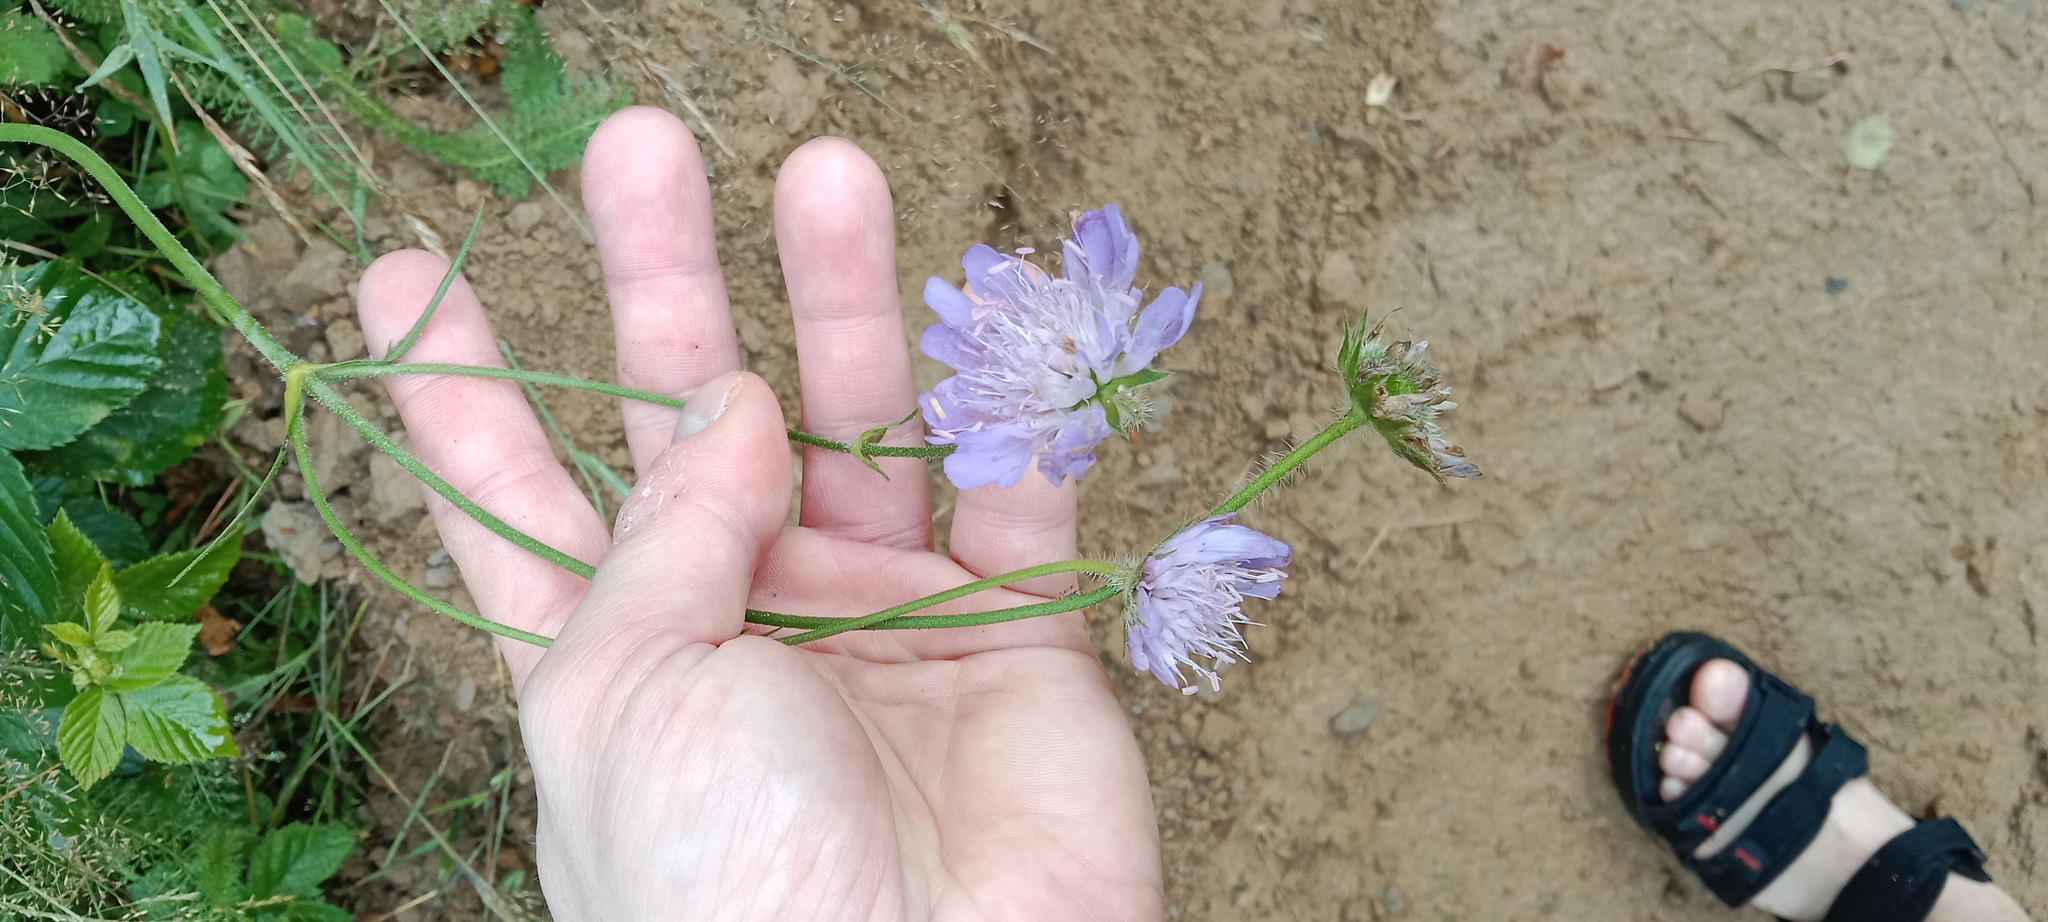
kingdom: Plantae
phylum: Tracheophyta
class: Magnoliopsida
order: Dipsacales
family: Caprifoliaceae
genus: Knautia
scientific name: Knautia arvensis
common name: Field scabiosa
